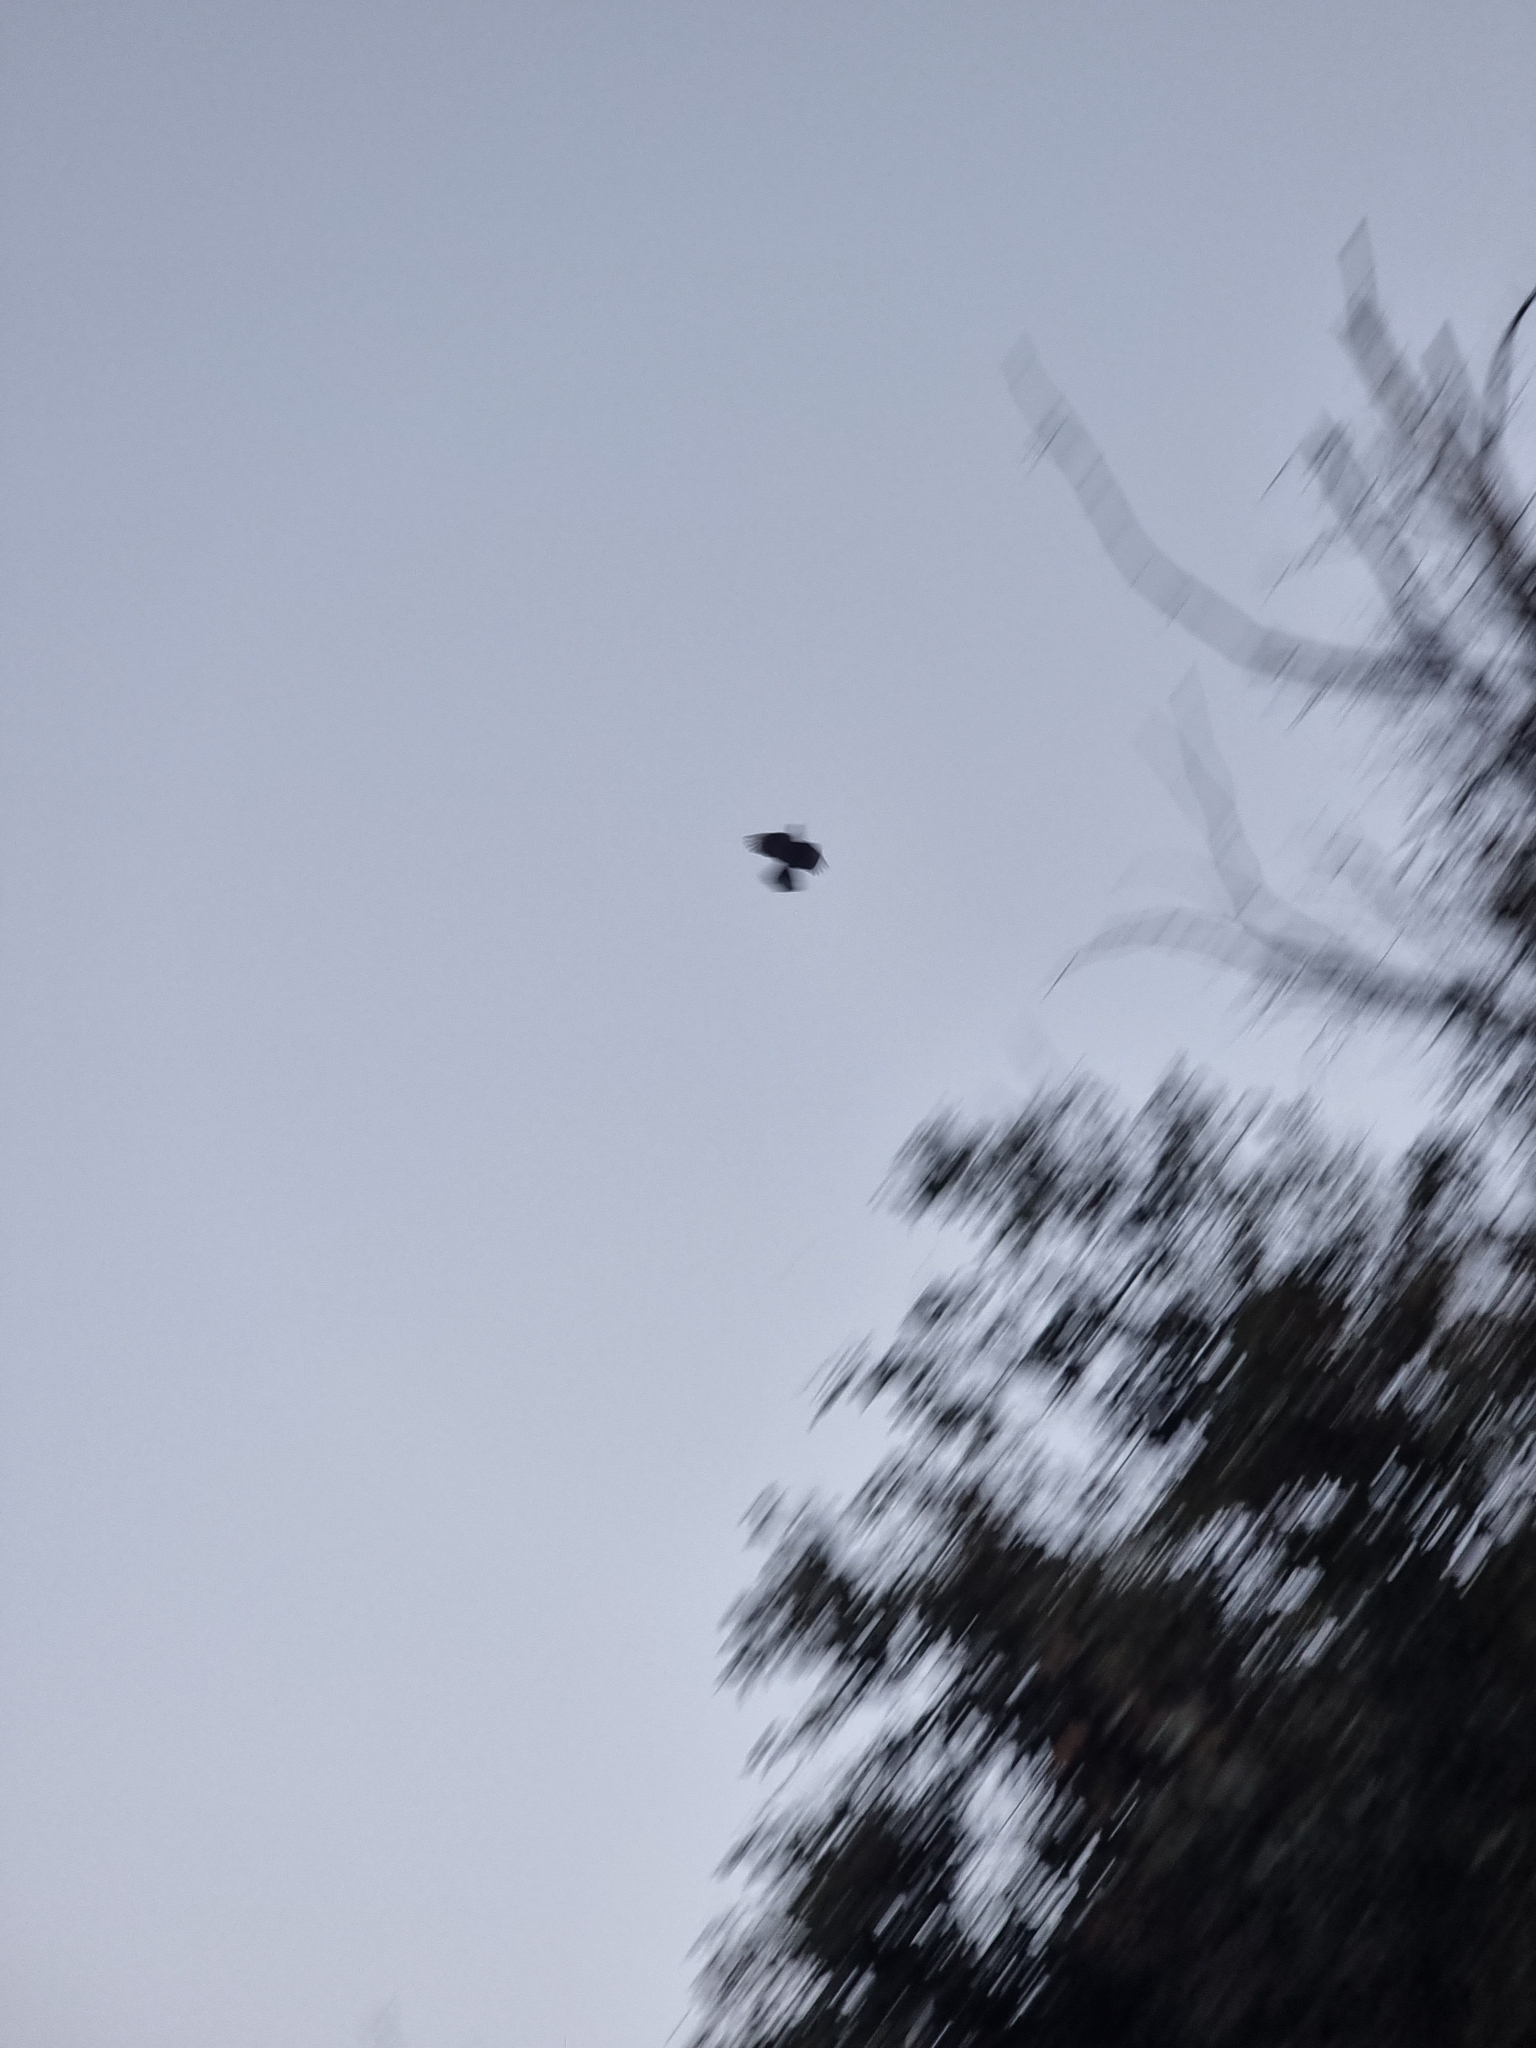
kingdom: Animalia
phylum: Chordata
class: Aves
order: Columbiformes
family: Columbidae
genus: Columba
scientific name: Columba trocaz
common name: Trocaz pigeon
